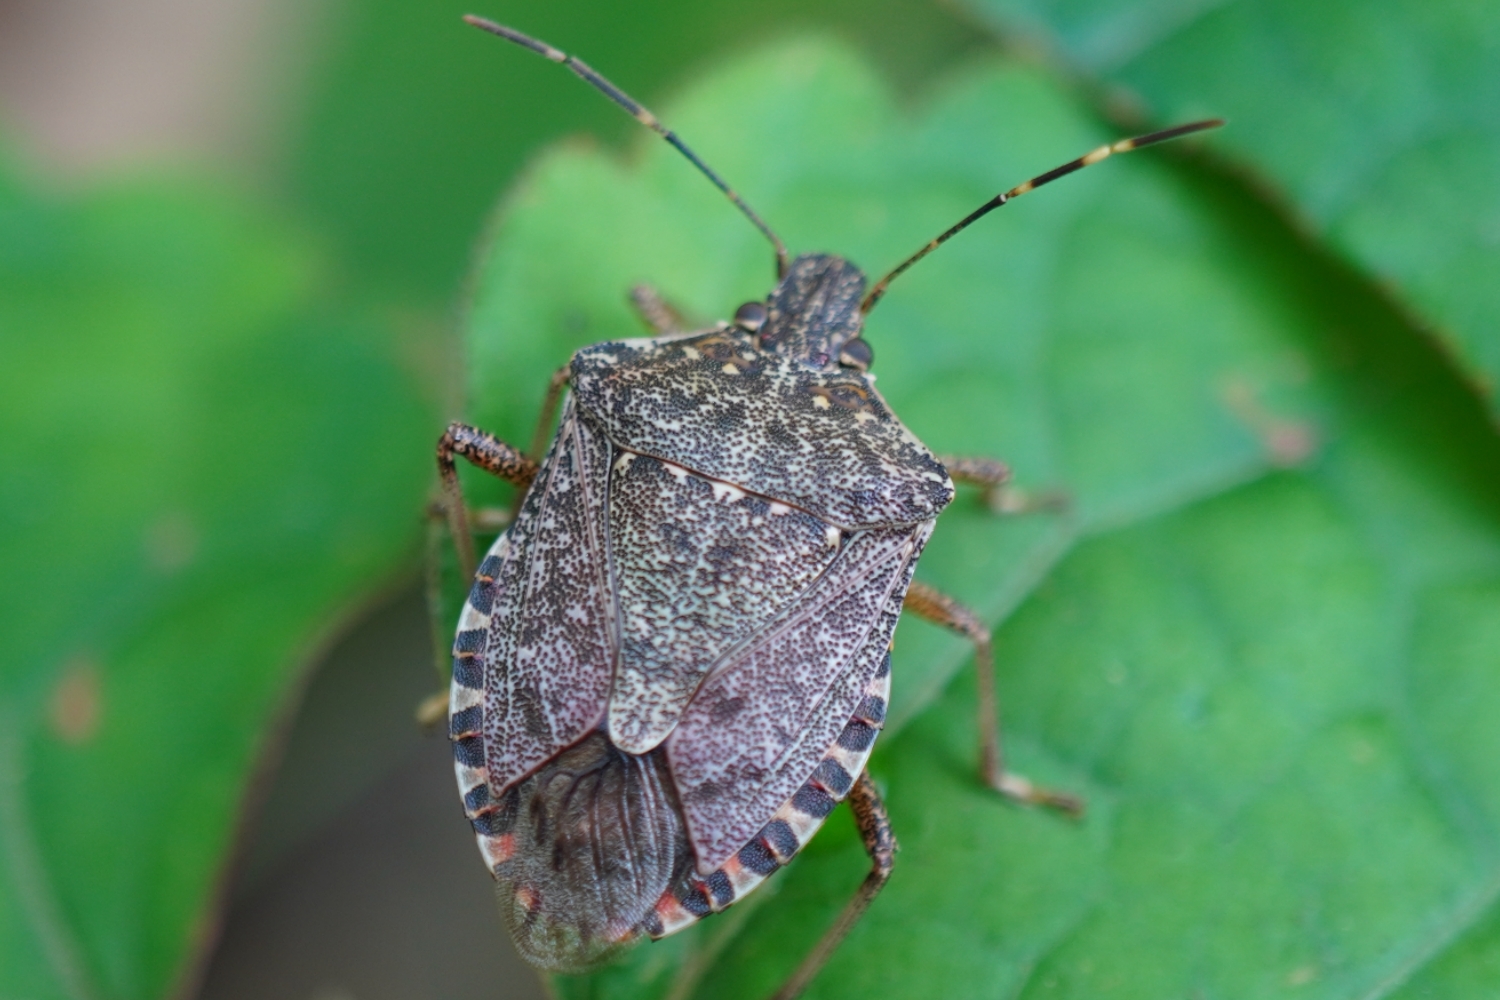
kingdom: Animalia
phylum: Arthropoda
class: Insecta
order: Hemiptera
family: Pentatomidae
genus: Halyomorpha
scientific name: Halyomorpha halys
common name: Brown marmorated stink bug
